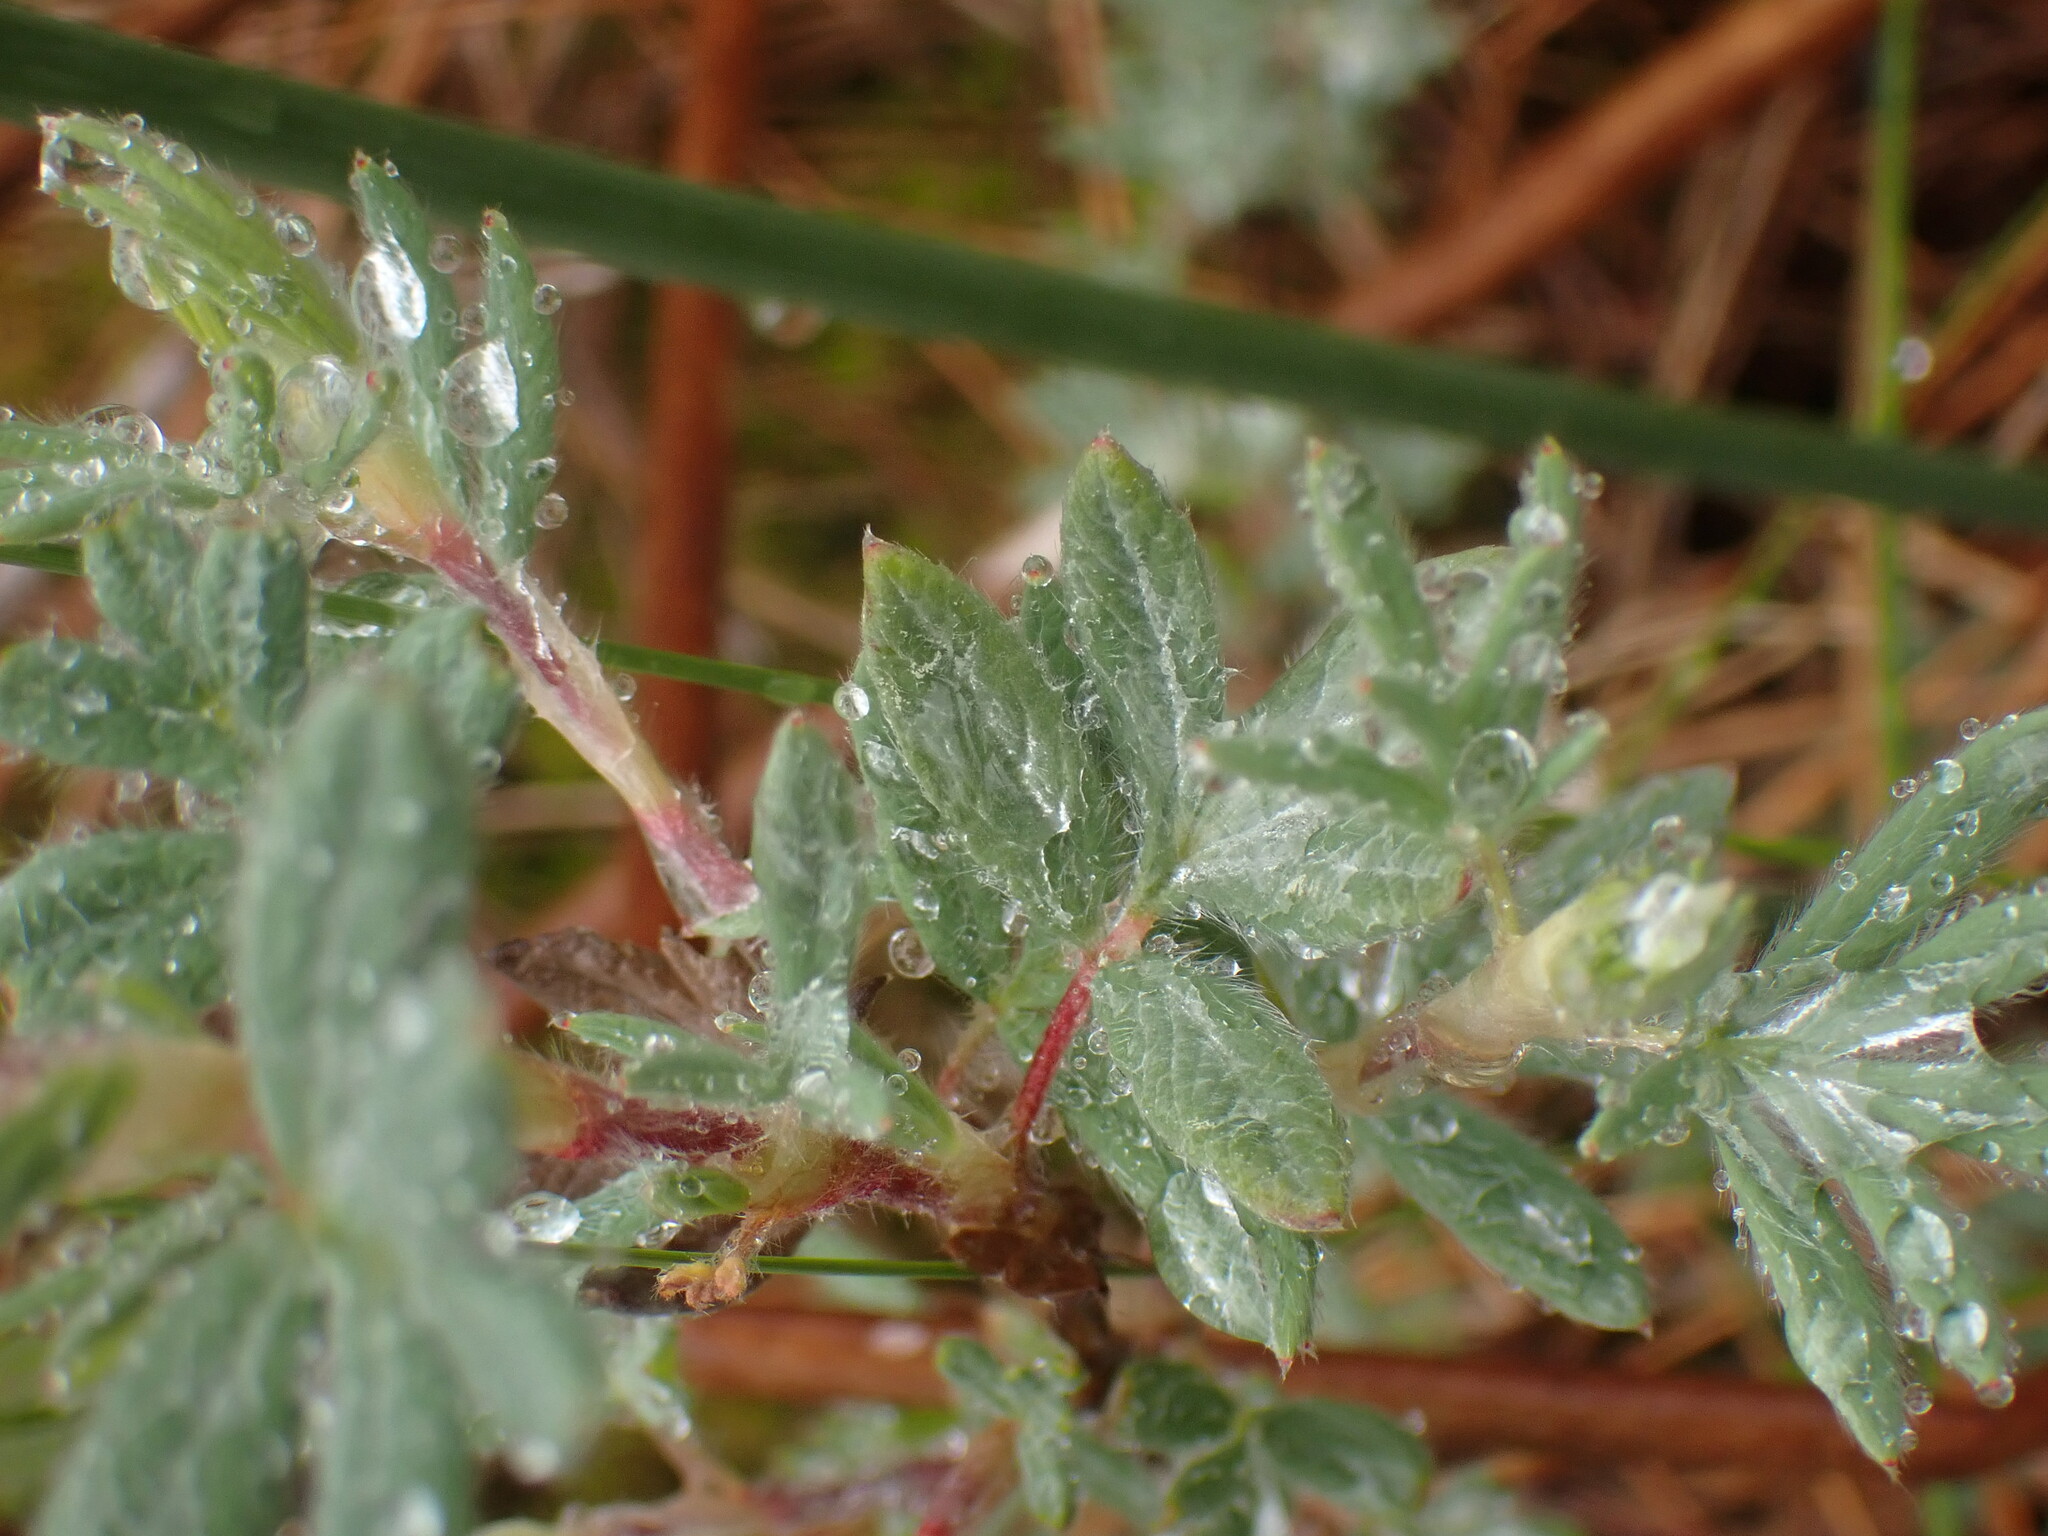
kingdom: Plantae
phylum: Tracheophyta
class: Magnoliopsida
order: Rosales
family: Rosaceae
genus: Dasiphora
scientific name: Dasiphora fruticosa
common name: Shrubby cinquefoil
